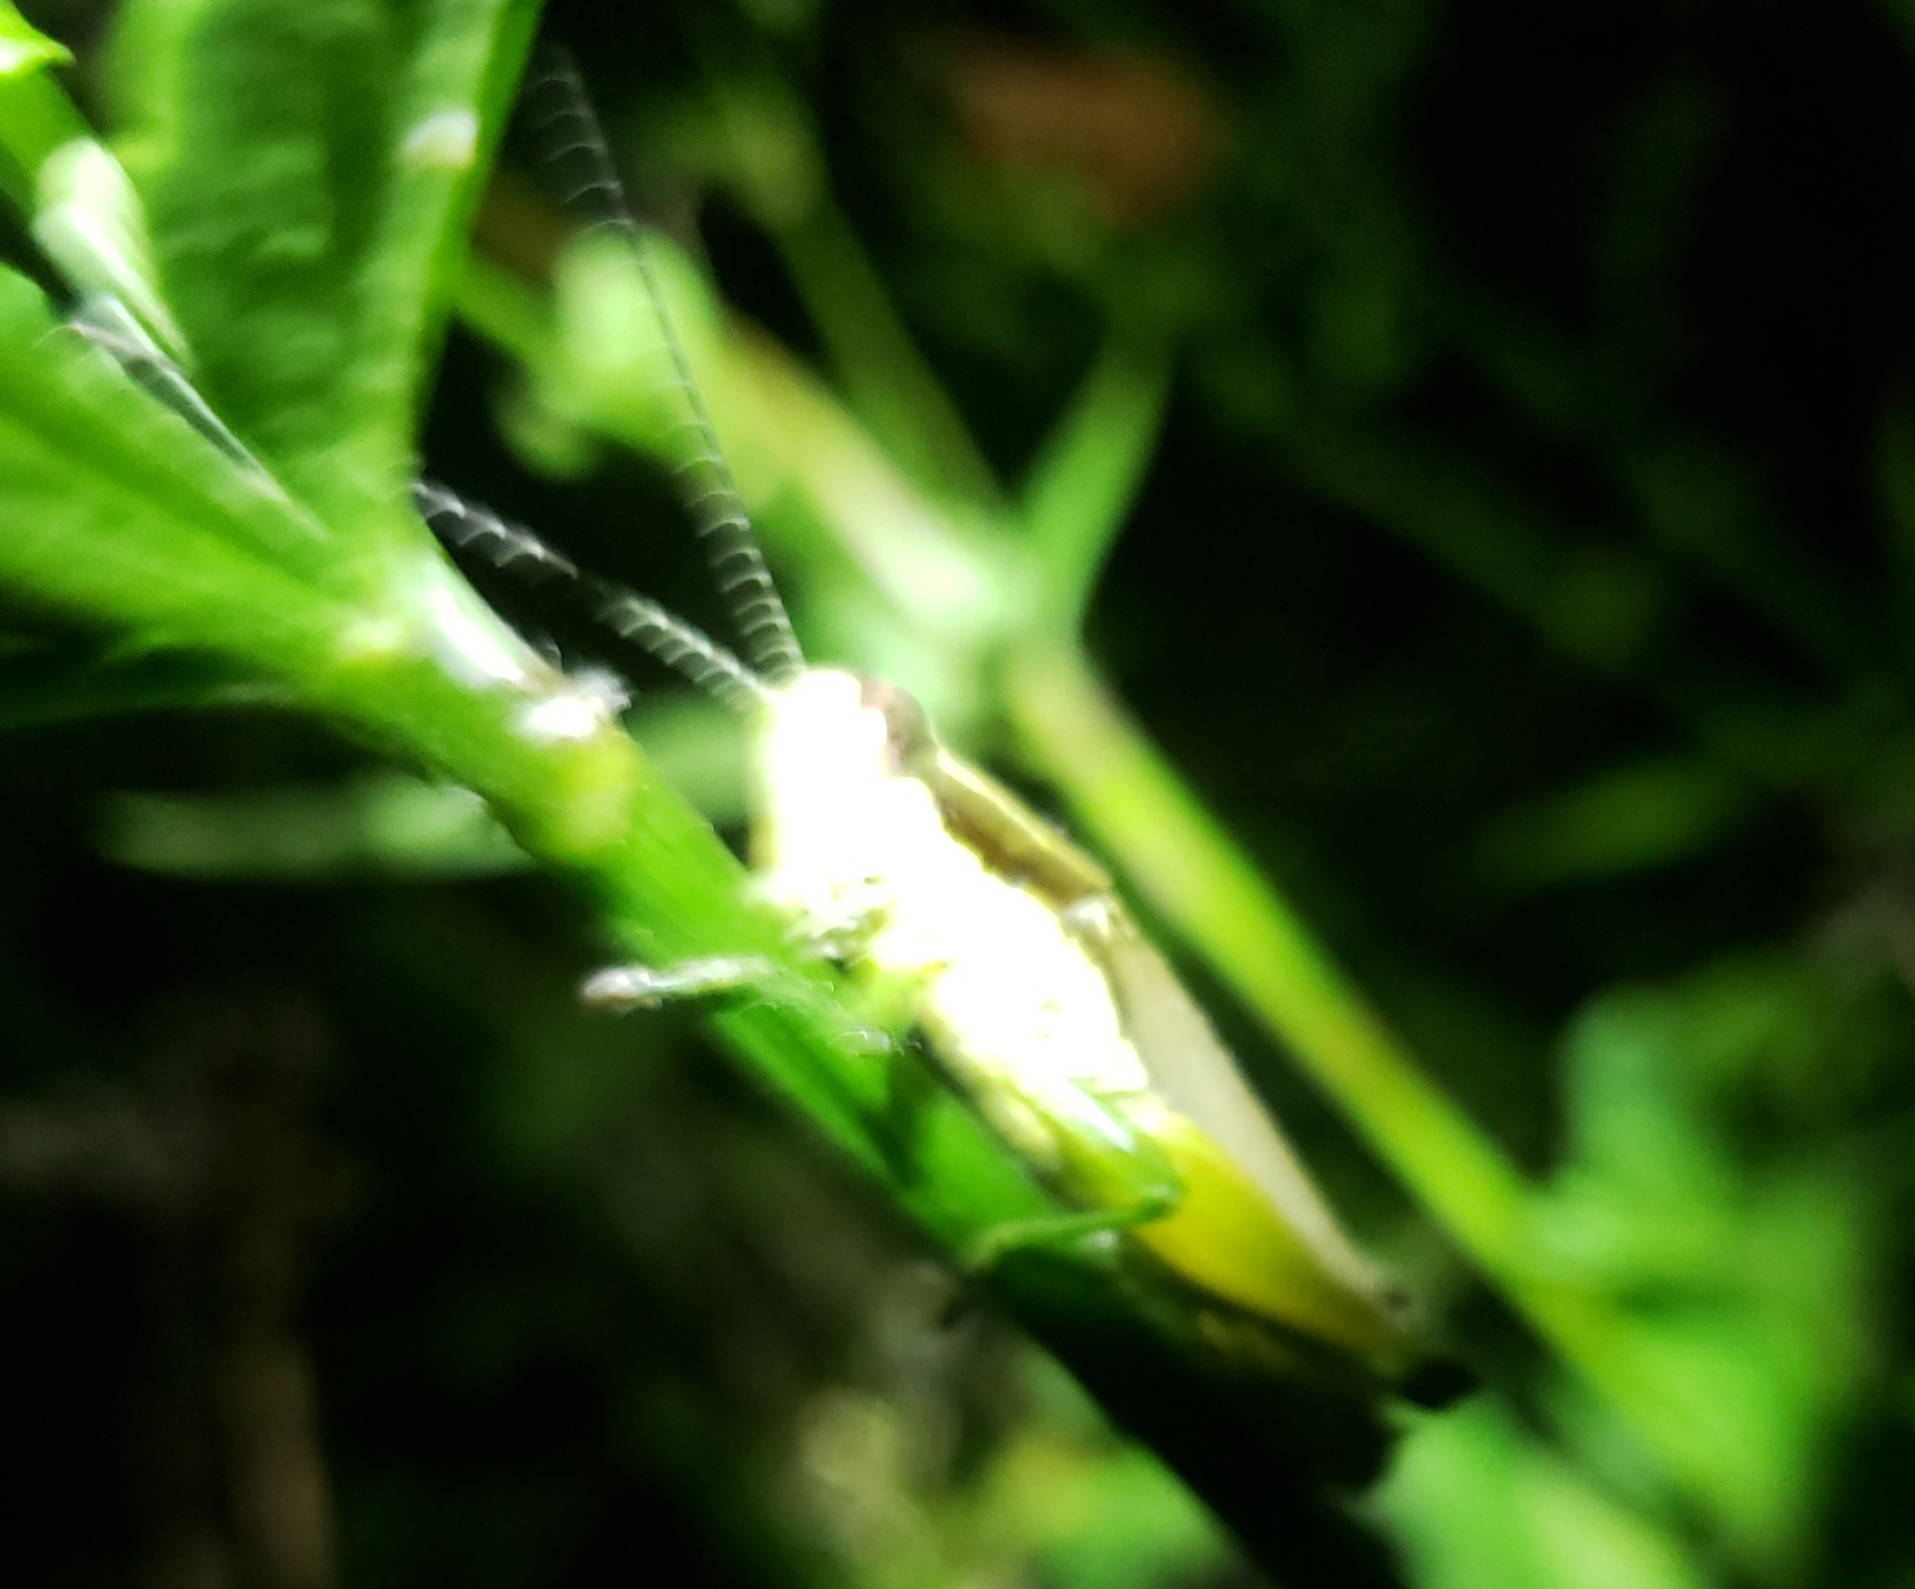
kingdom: Animalia
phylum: Arthropoda
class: Insecta
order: Orthoptera
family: Acrididae
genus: Paroxya
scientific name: Paroxya clavuligera
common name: Olive-green swamp grasshopper
